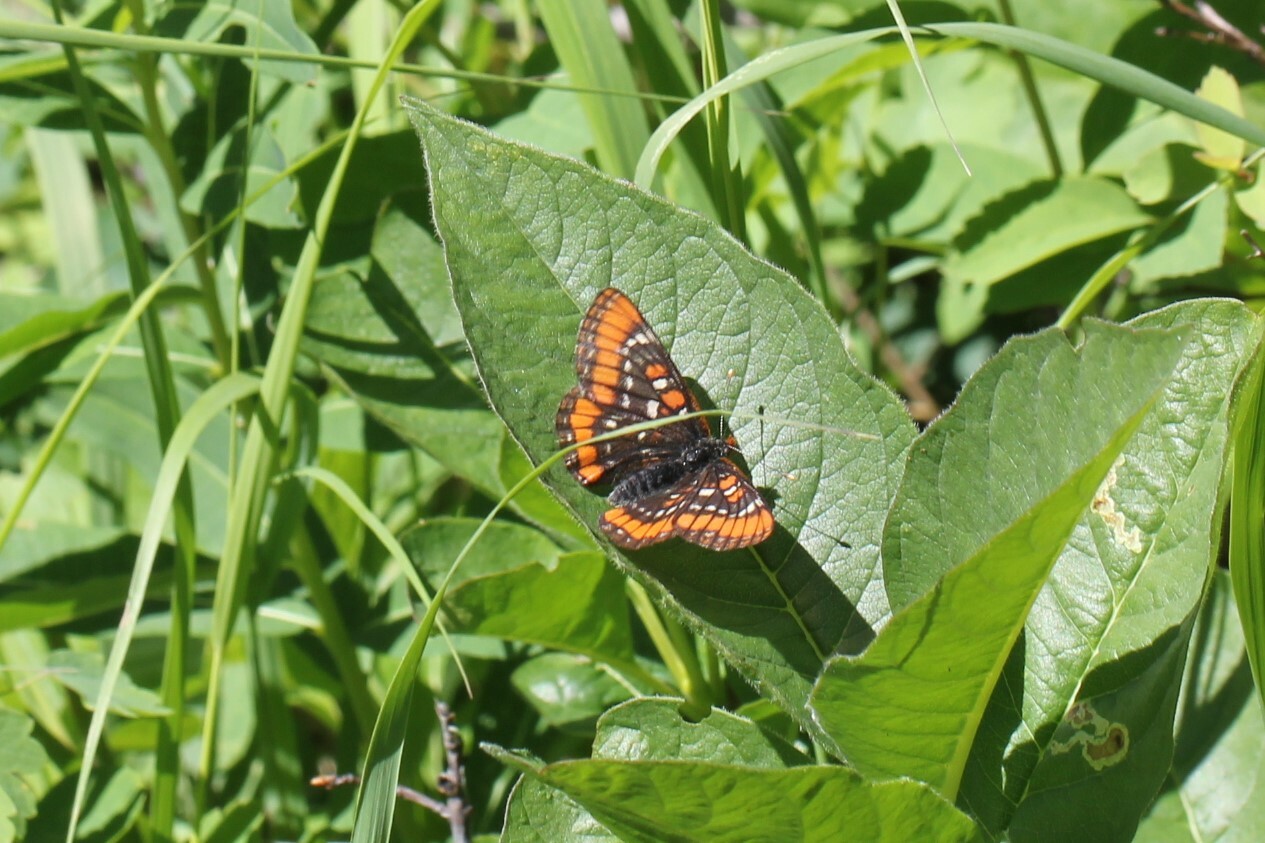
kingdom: Animalia
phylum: Arthropoda
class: Insecta
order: Lepidoptera
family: Nymphalidae
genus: Hypodryas
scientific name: Hypodryas gillettii
